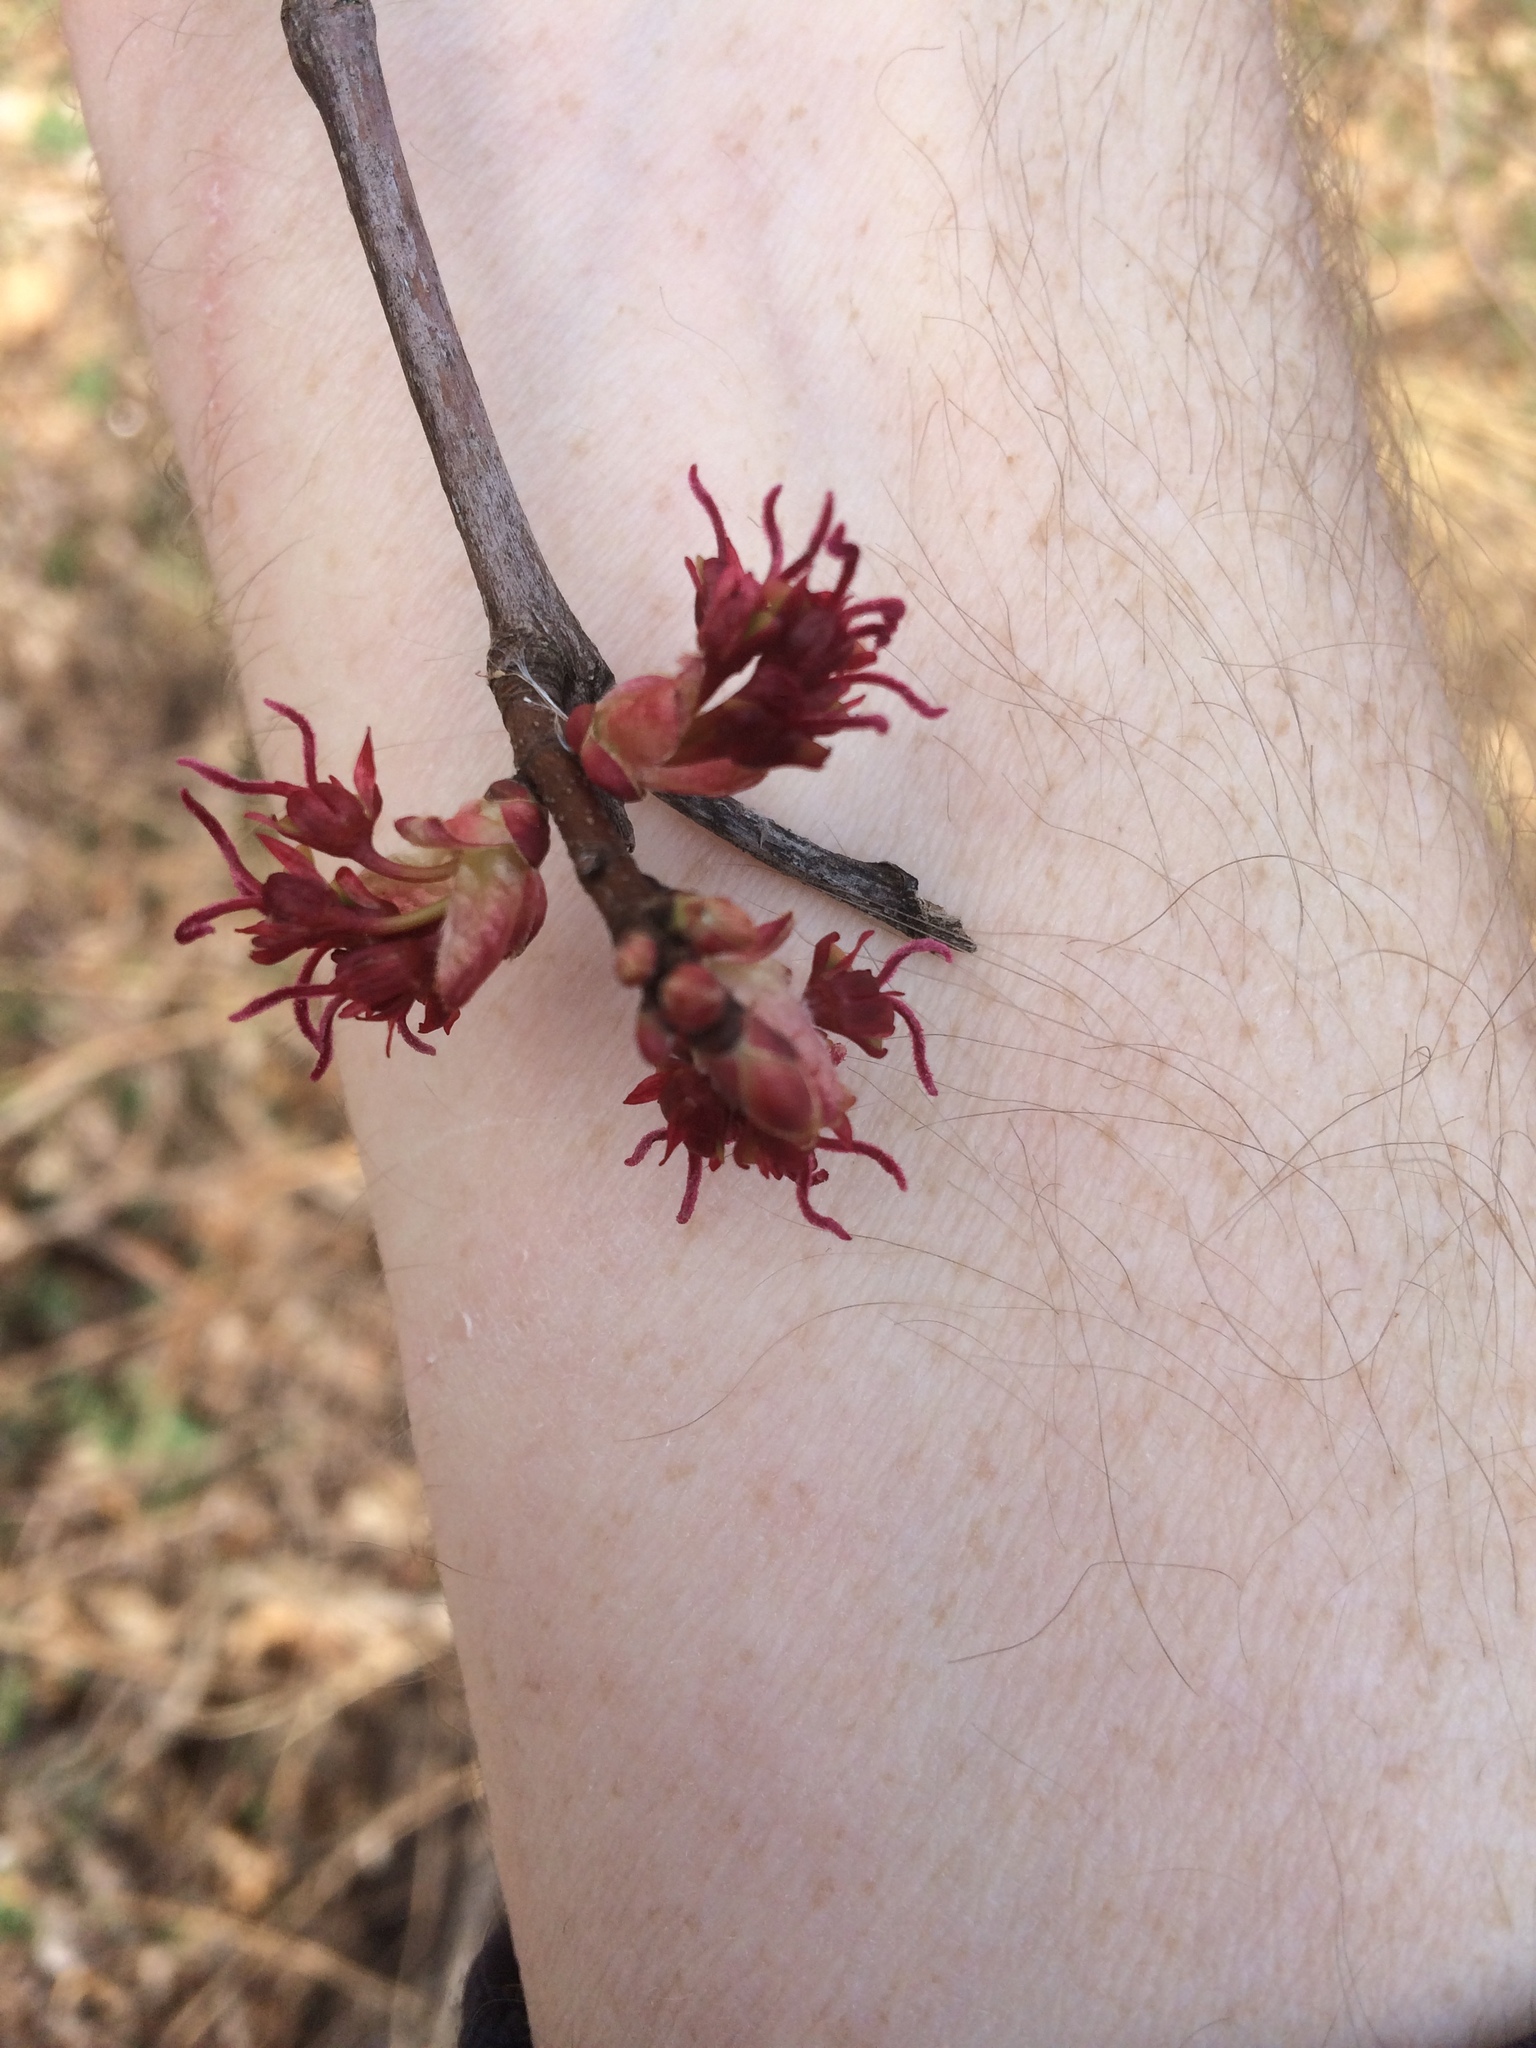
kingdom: Plantae
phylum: Tracheophyta
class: Magnoliopsida
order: Sapindales
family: Sapindaceae
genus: Acer
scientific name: Acer rubrum
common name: Red maple
